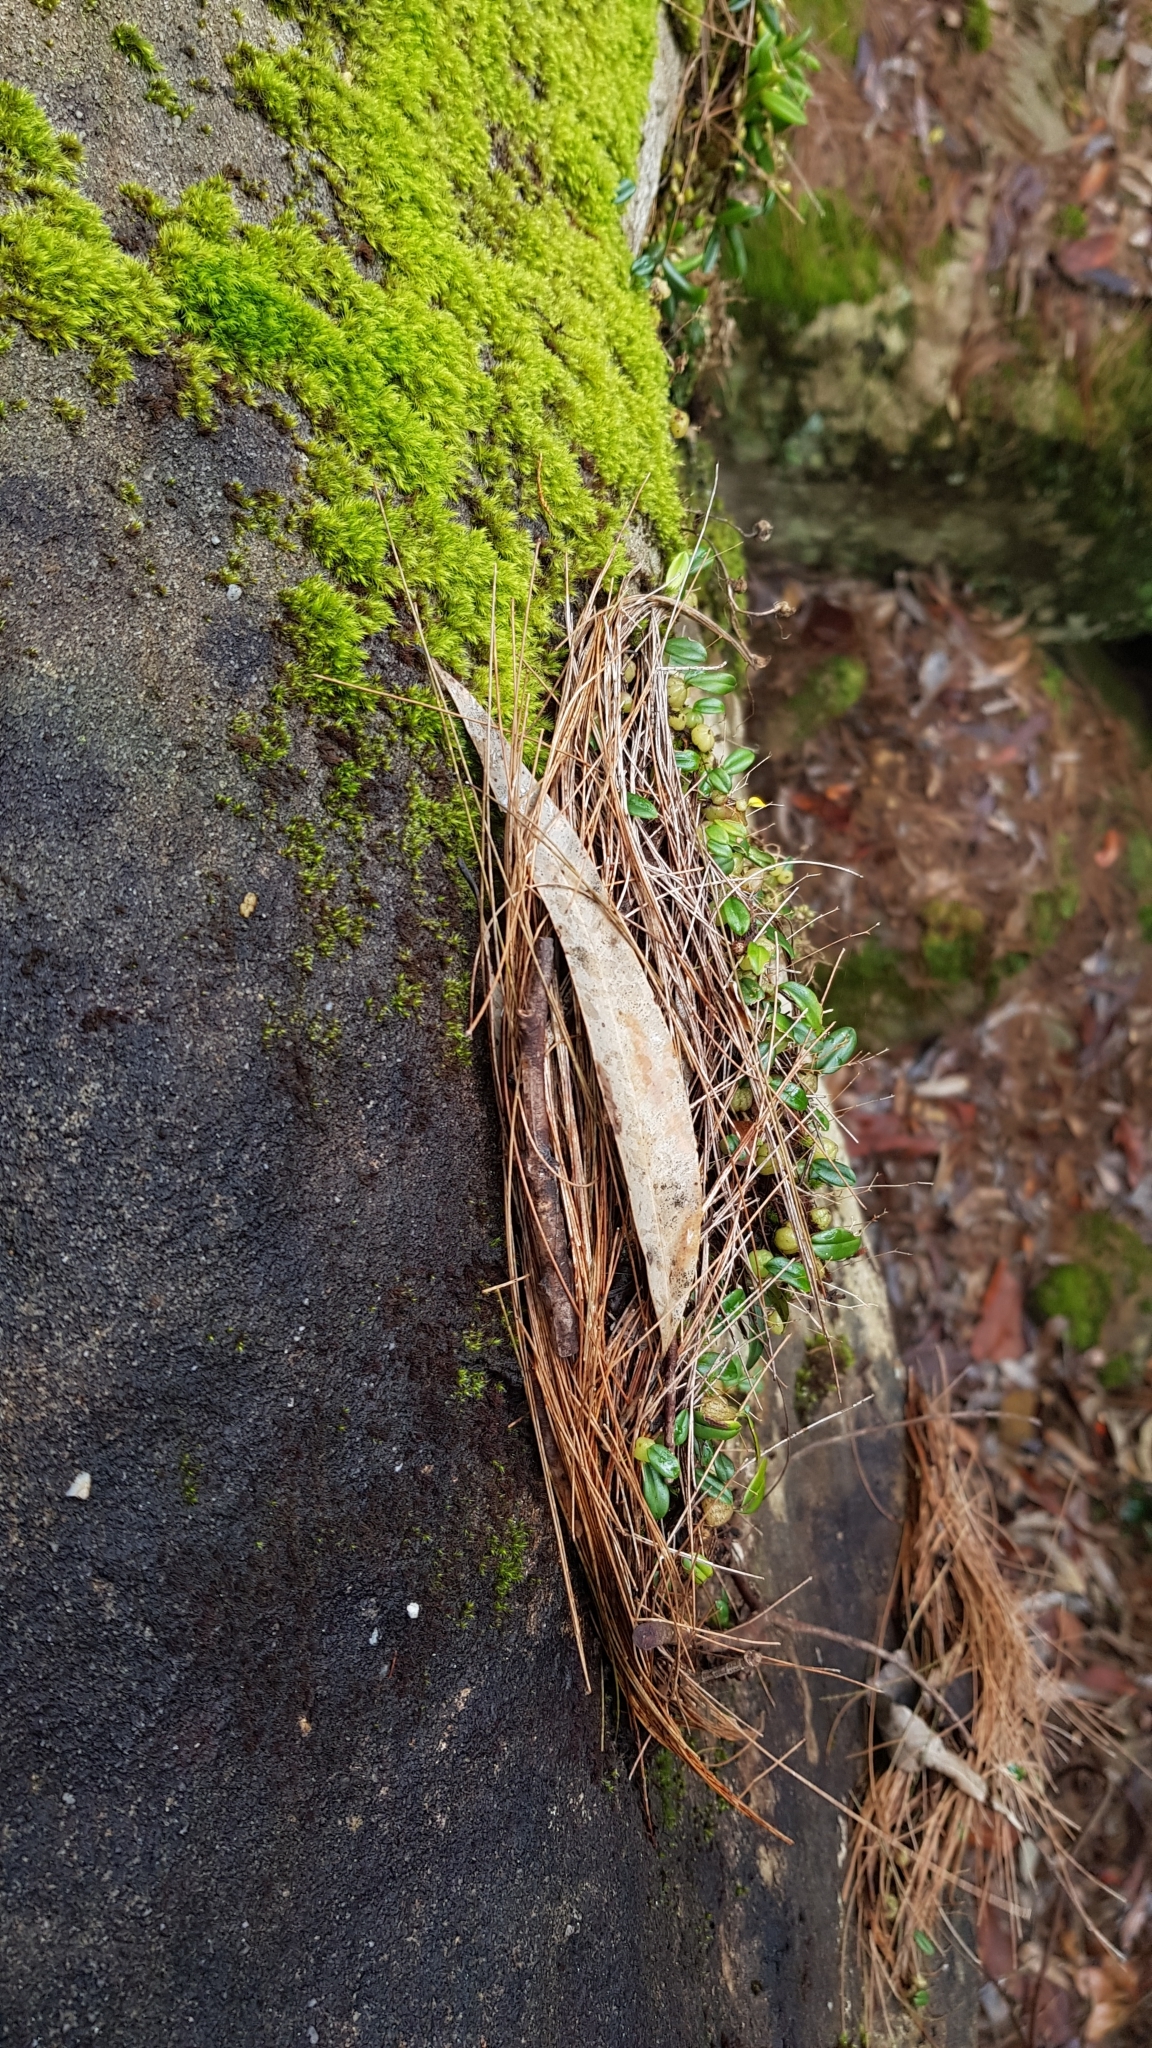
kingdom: Plantae
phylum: Tracheophyta
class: Liliopsida
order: Asparagales
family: Orchidaceae
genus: Bulbophyllum
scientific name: Bulbophyllum exiguum
